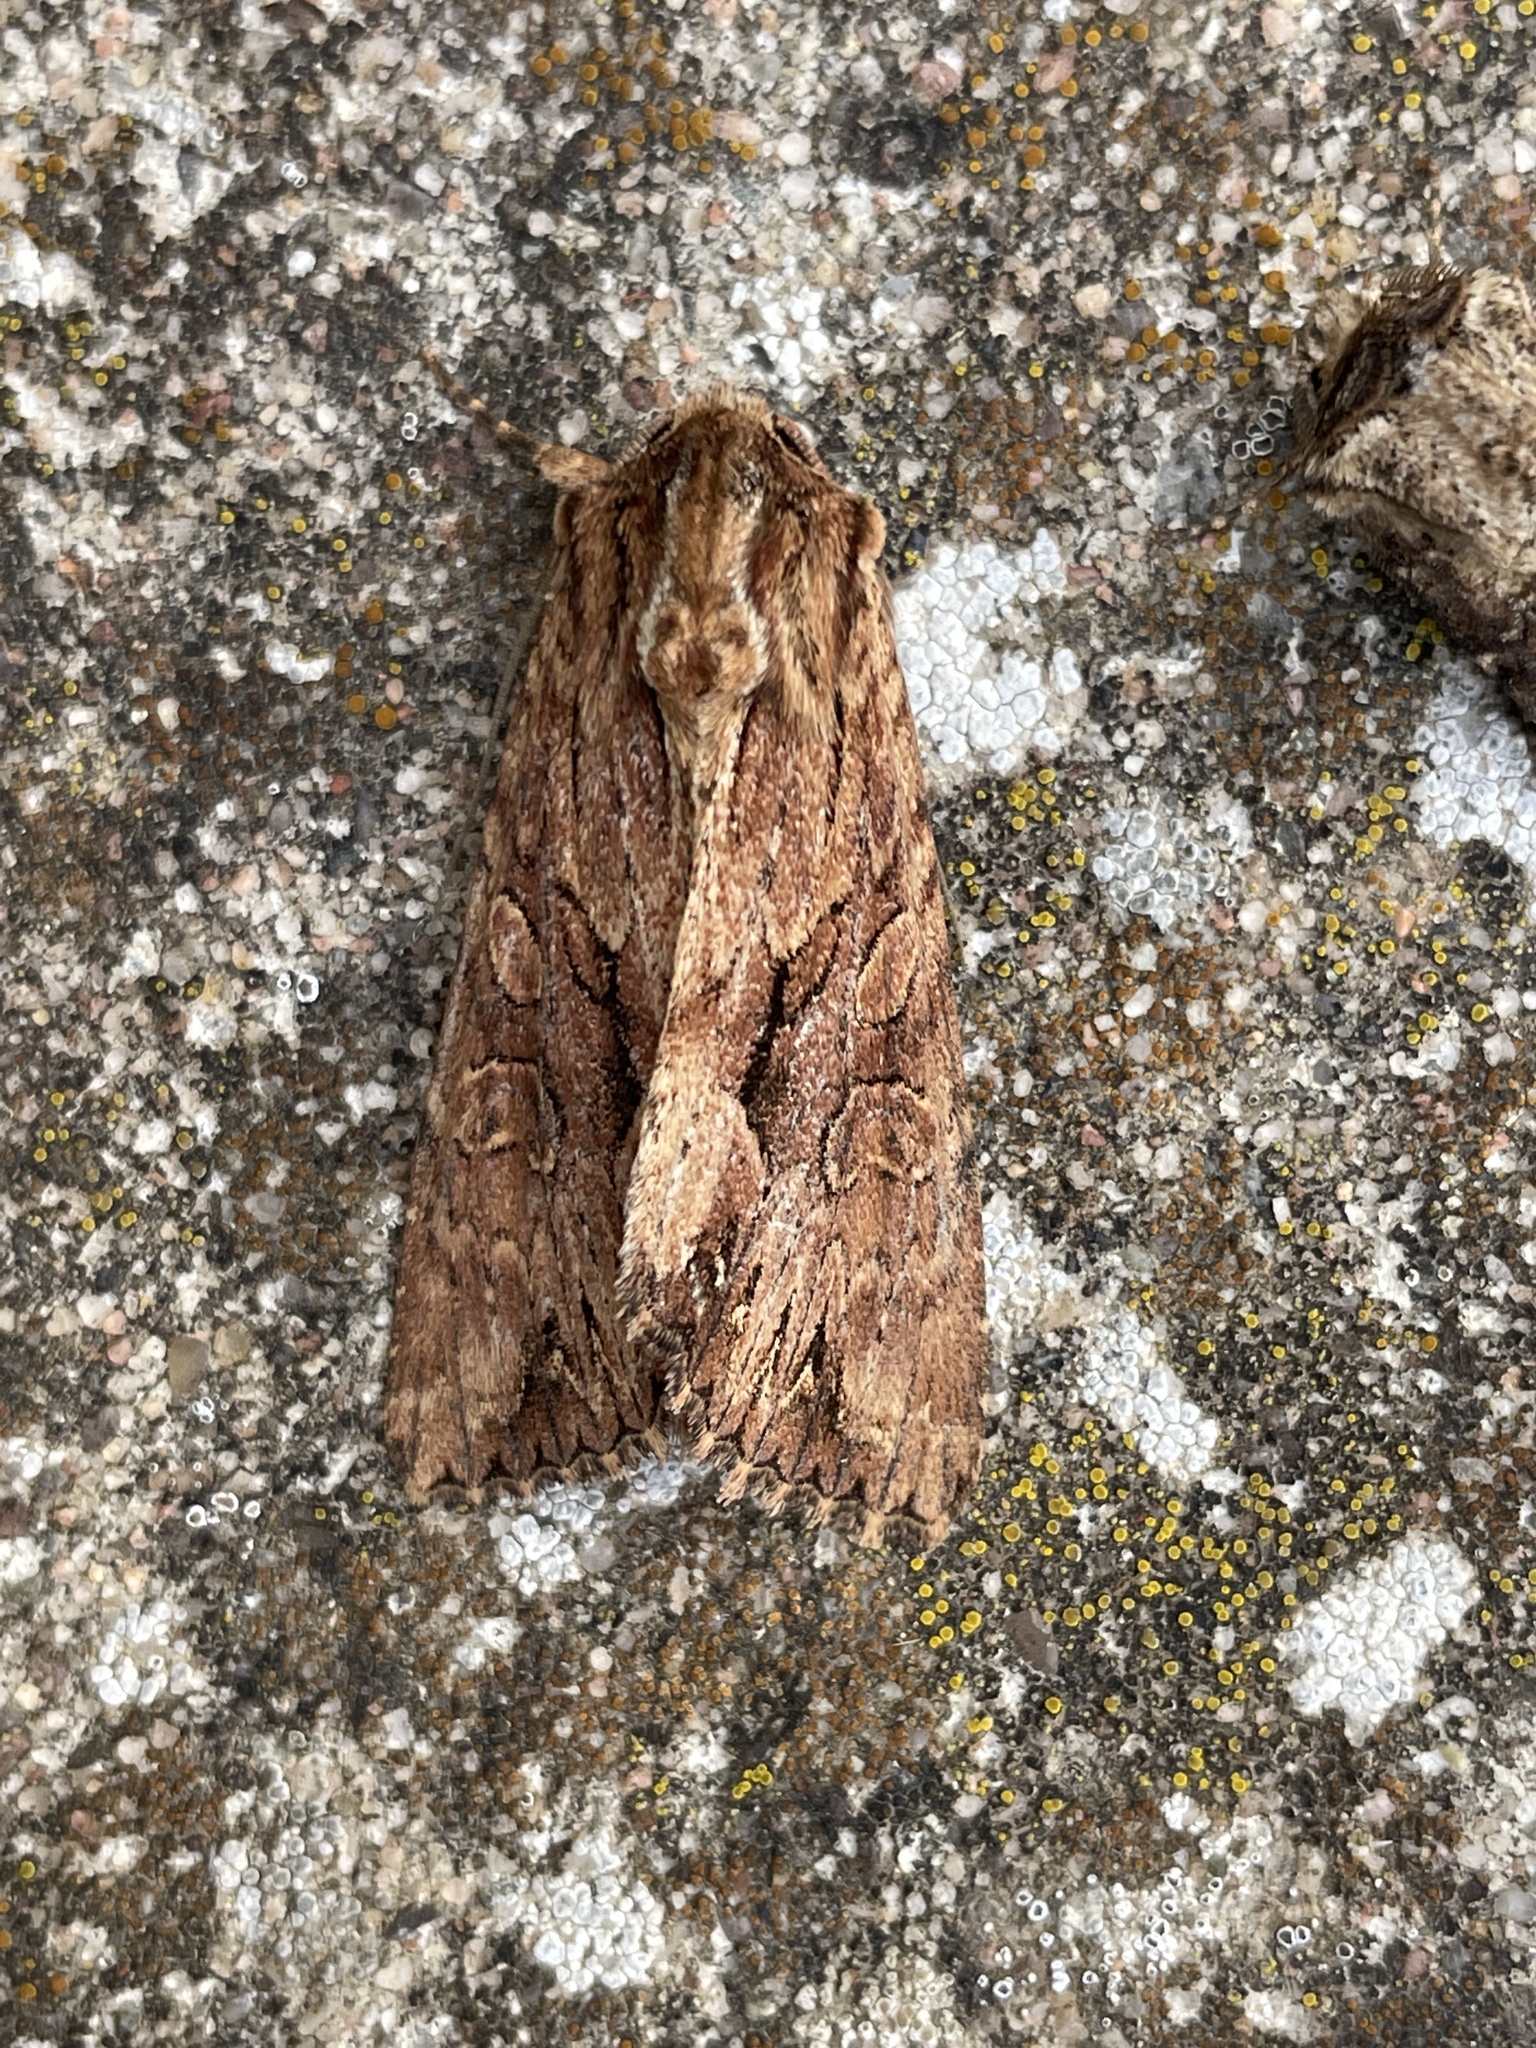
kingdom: Animalia
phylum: Arthropoda
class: Insecta
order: Lepidoptera
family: Noctuidae
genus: Apamea
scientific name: Apamea monoglypha
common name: Dark arches
